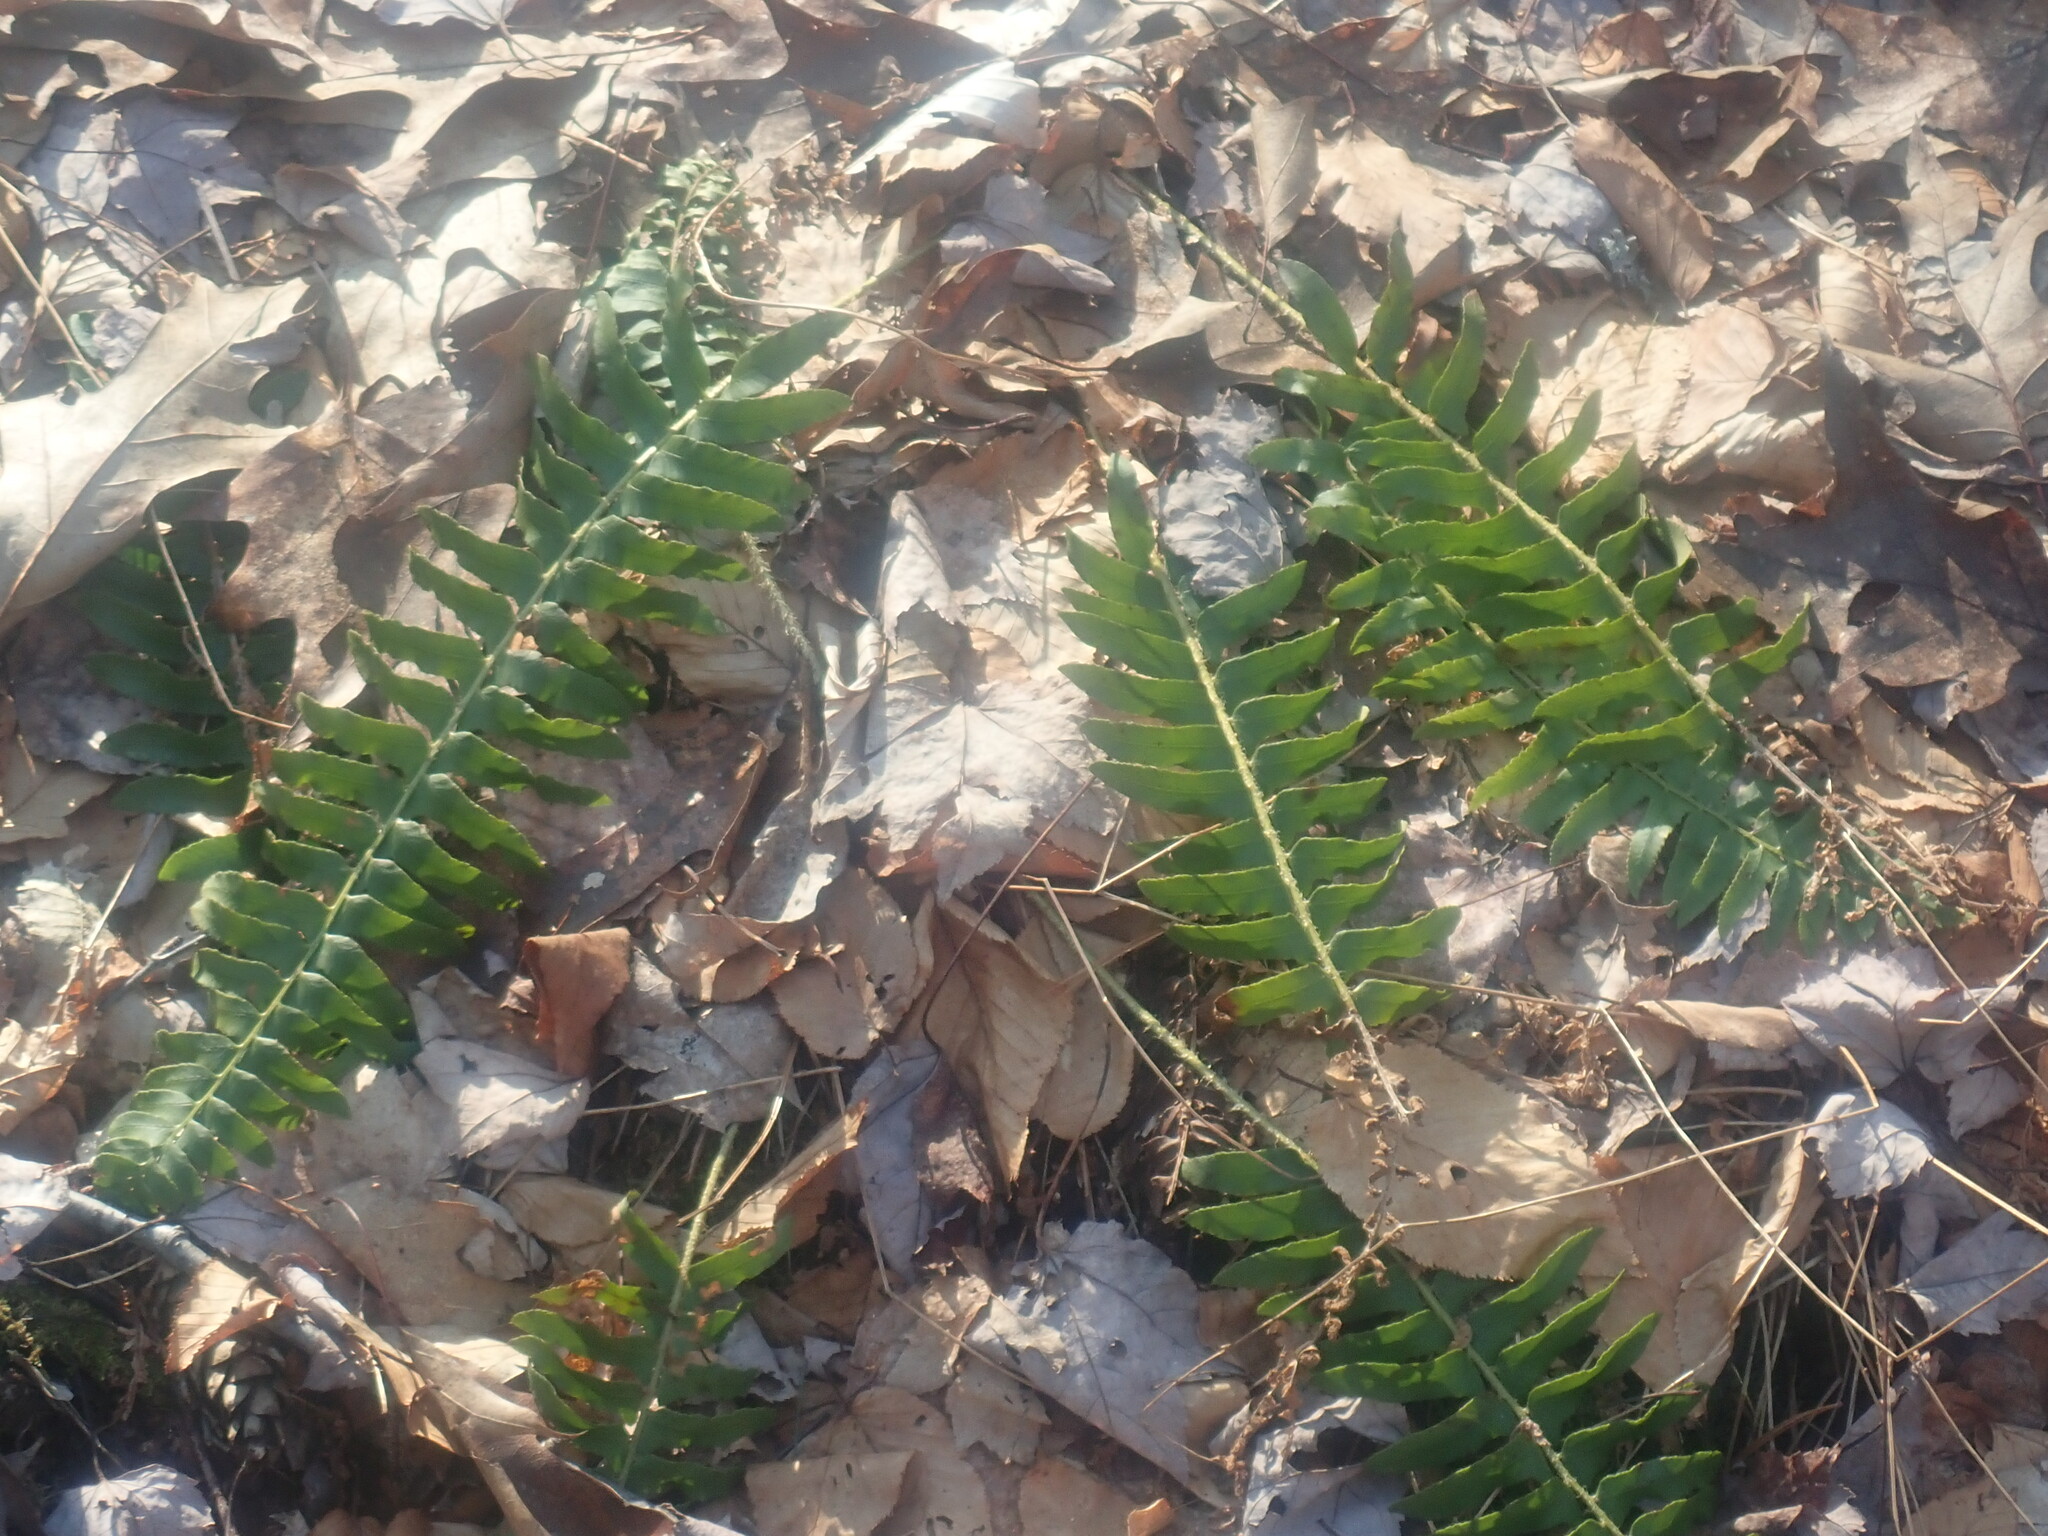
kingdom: Plantae
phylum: Tracheophyta
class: Polypodiopsida
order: Polypodiales
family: Dryopteridaceae
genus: Polystichum
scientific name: Polystichum acrostichoides
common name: Christmas fern
